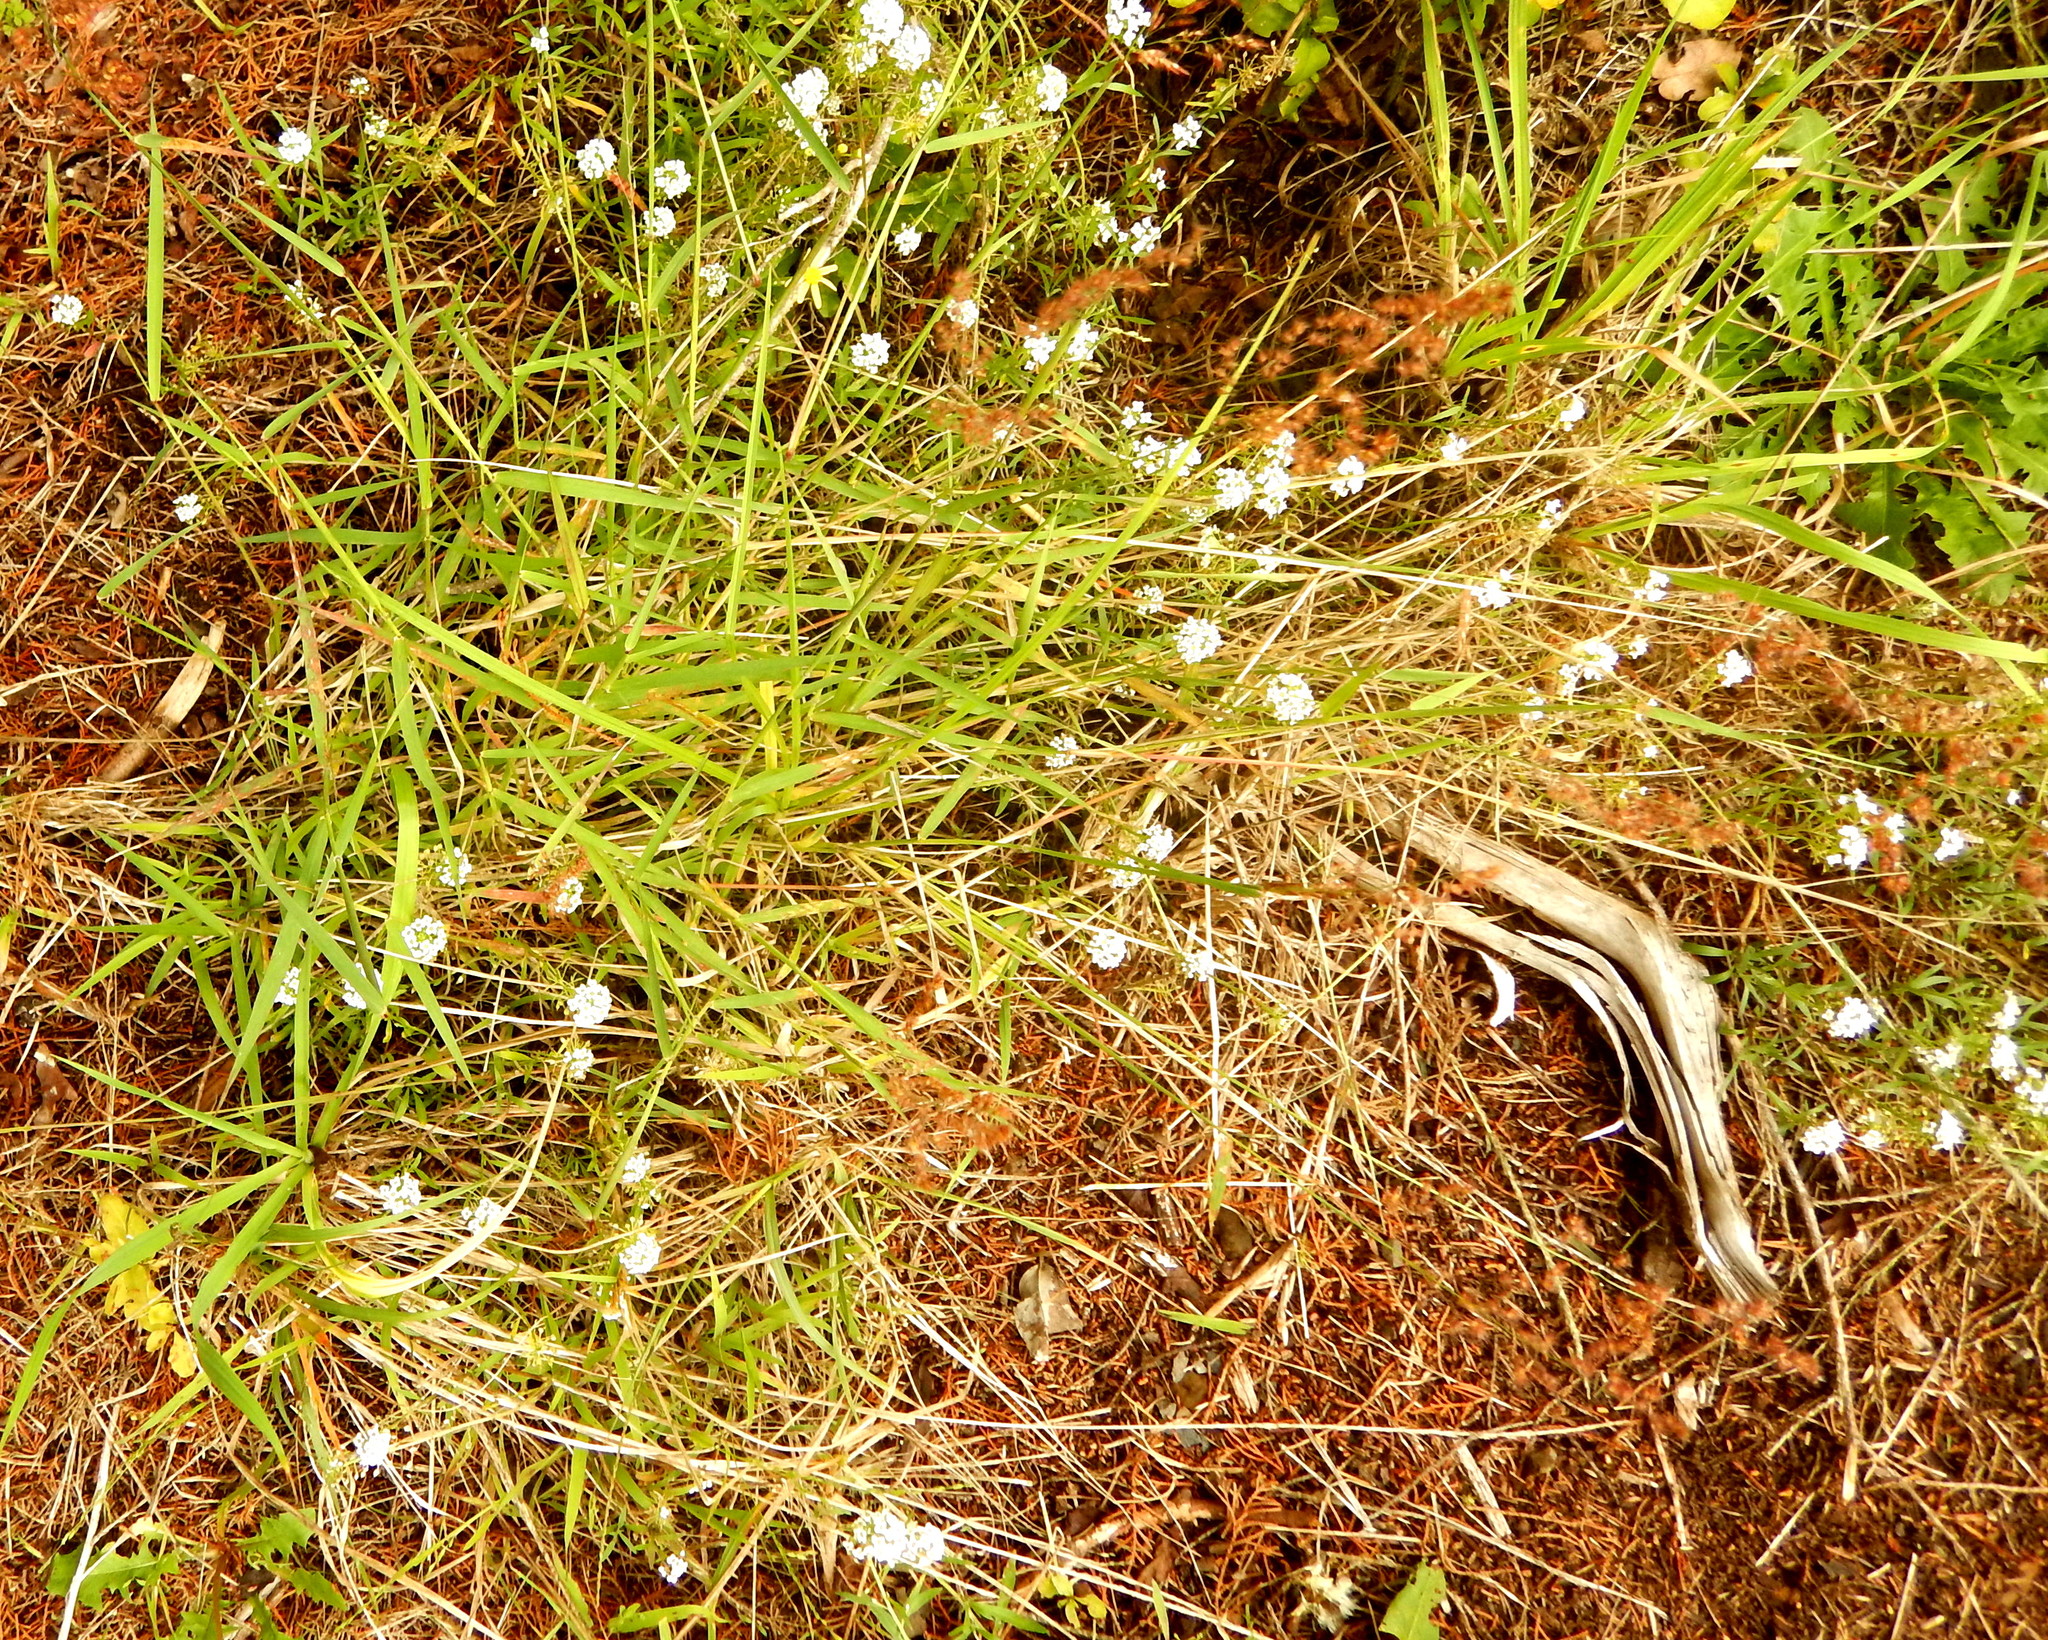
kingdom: Plantae
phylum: Tracheophyta
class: Liliopsida
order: Poales
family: Poaceae
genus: Melinis
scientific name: Melinis repens
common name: Rose natal grass
